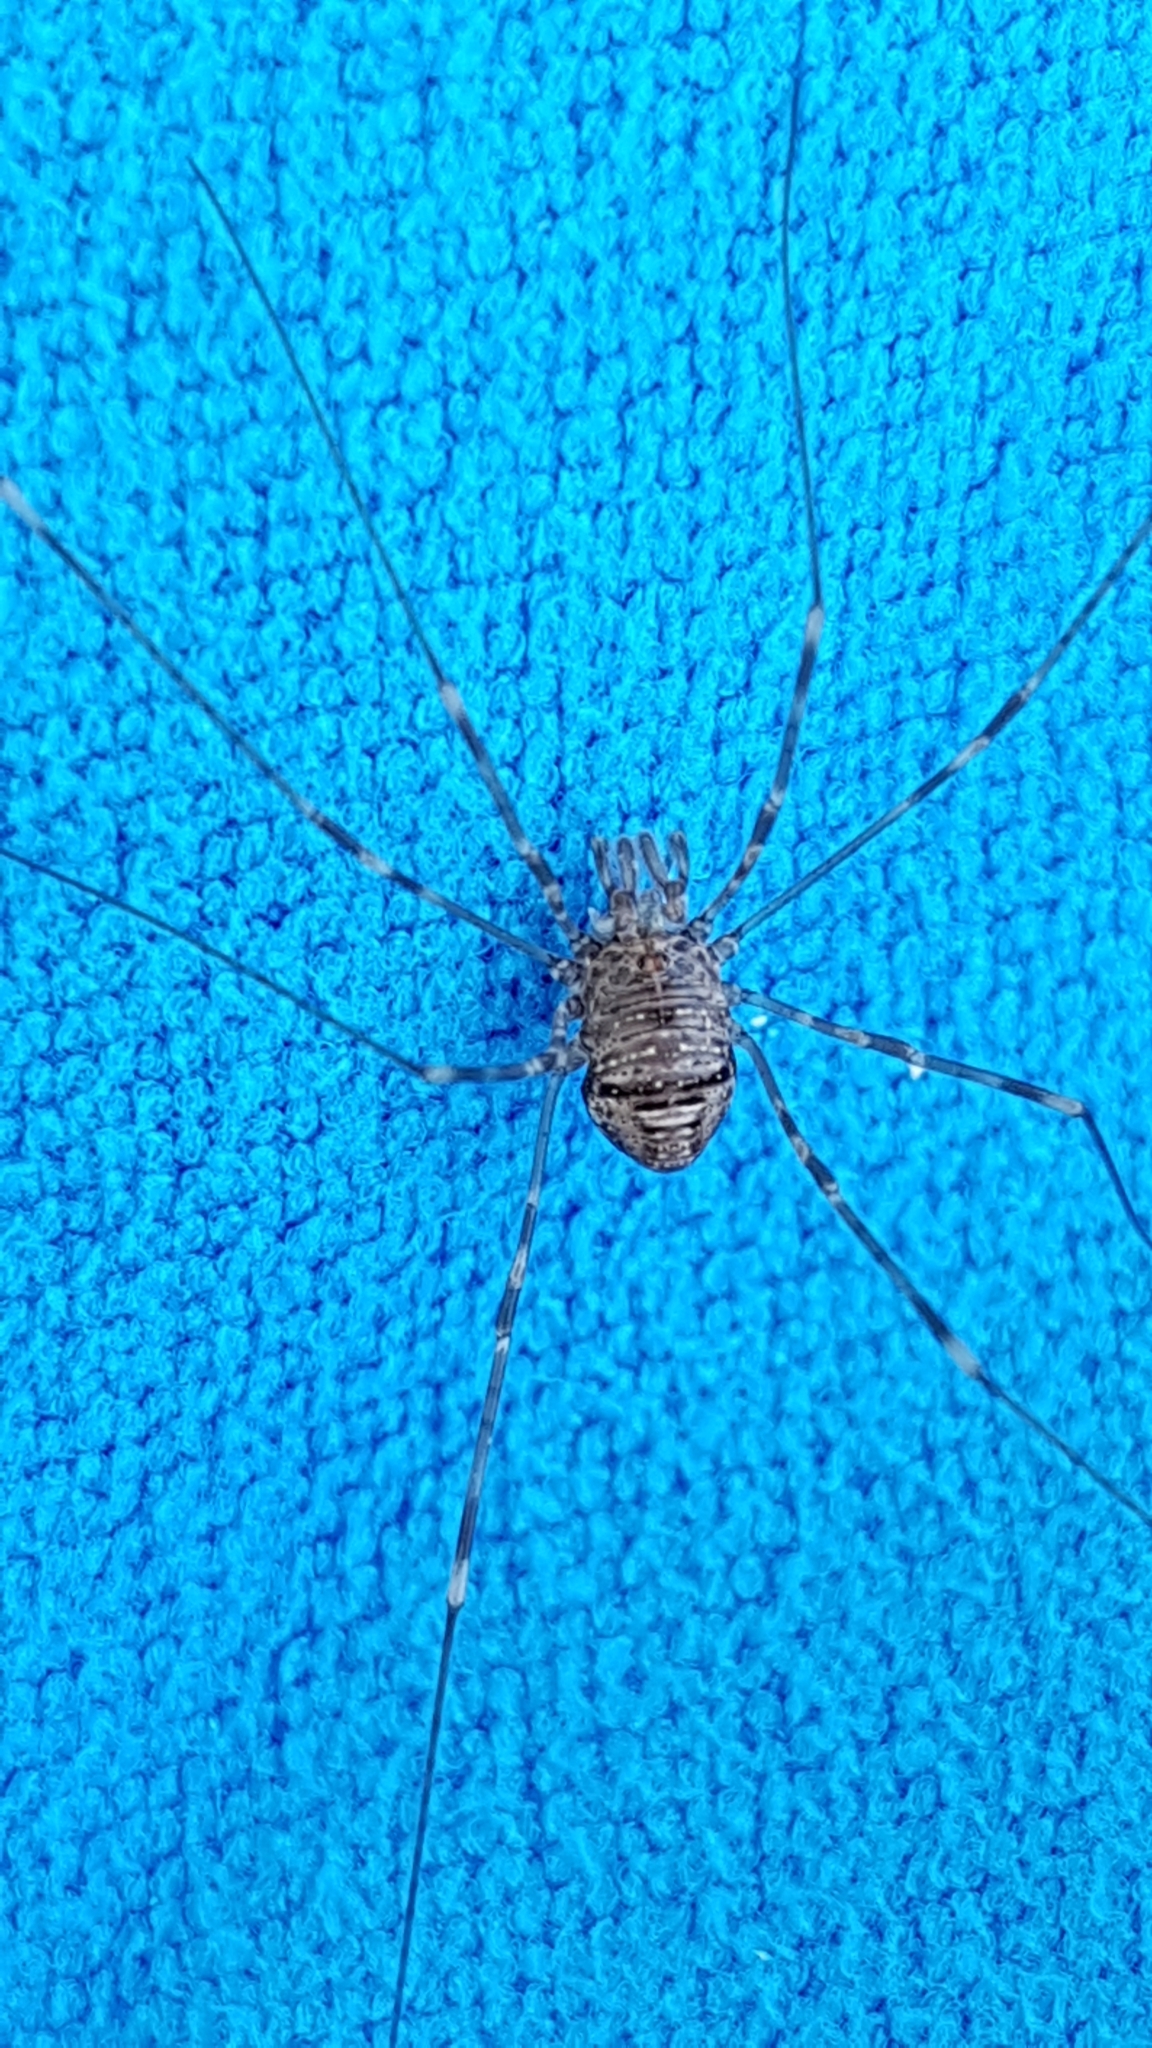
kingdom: Animalia
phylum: Arthropoda
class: Arachnida
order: Opiliones
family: Phalangiidae
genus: Dicranopalpus
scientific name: Dicranopalpus ramosus
